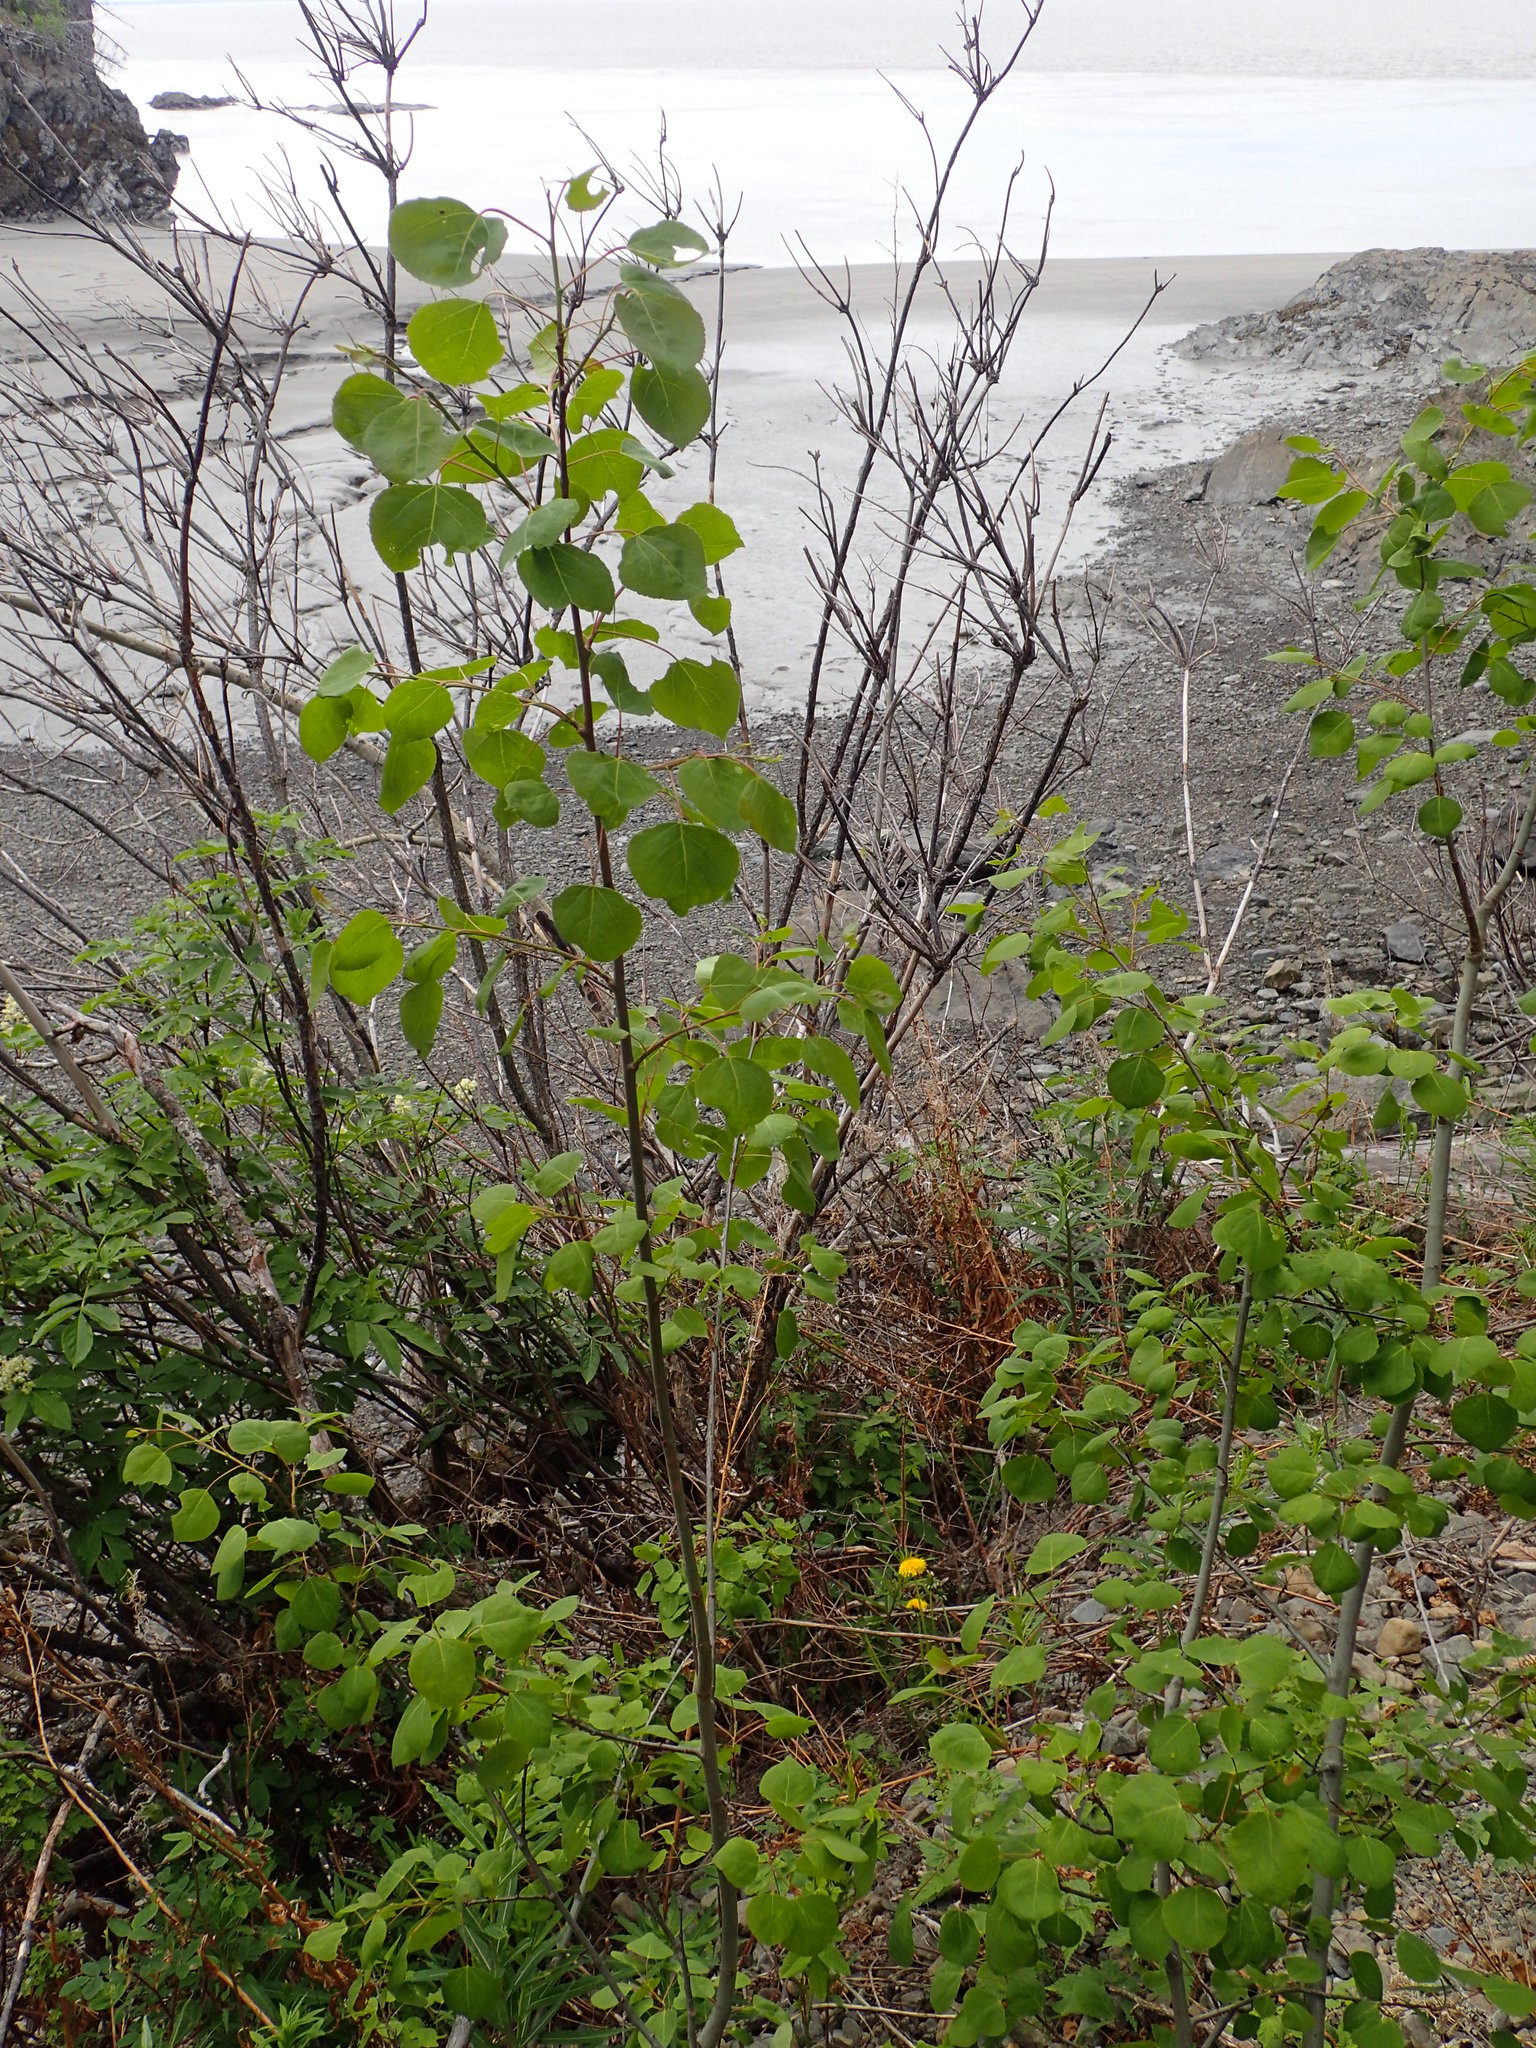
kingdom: Plantae
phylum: Tracheophyta
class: Magnoliopsida
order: Malpighiales
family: Salicaceae
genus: Populus
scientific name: Populus tremuloides
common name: Quaking aspen
